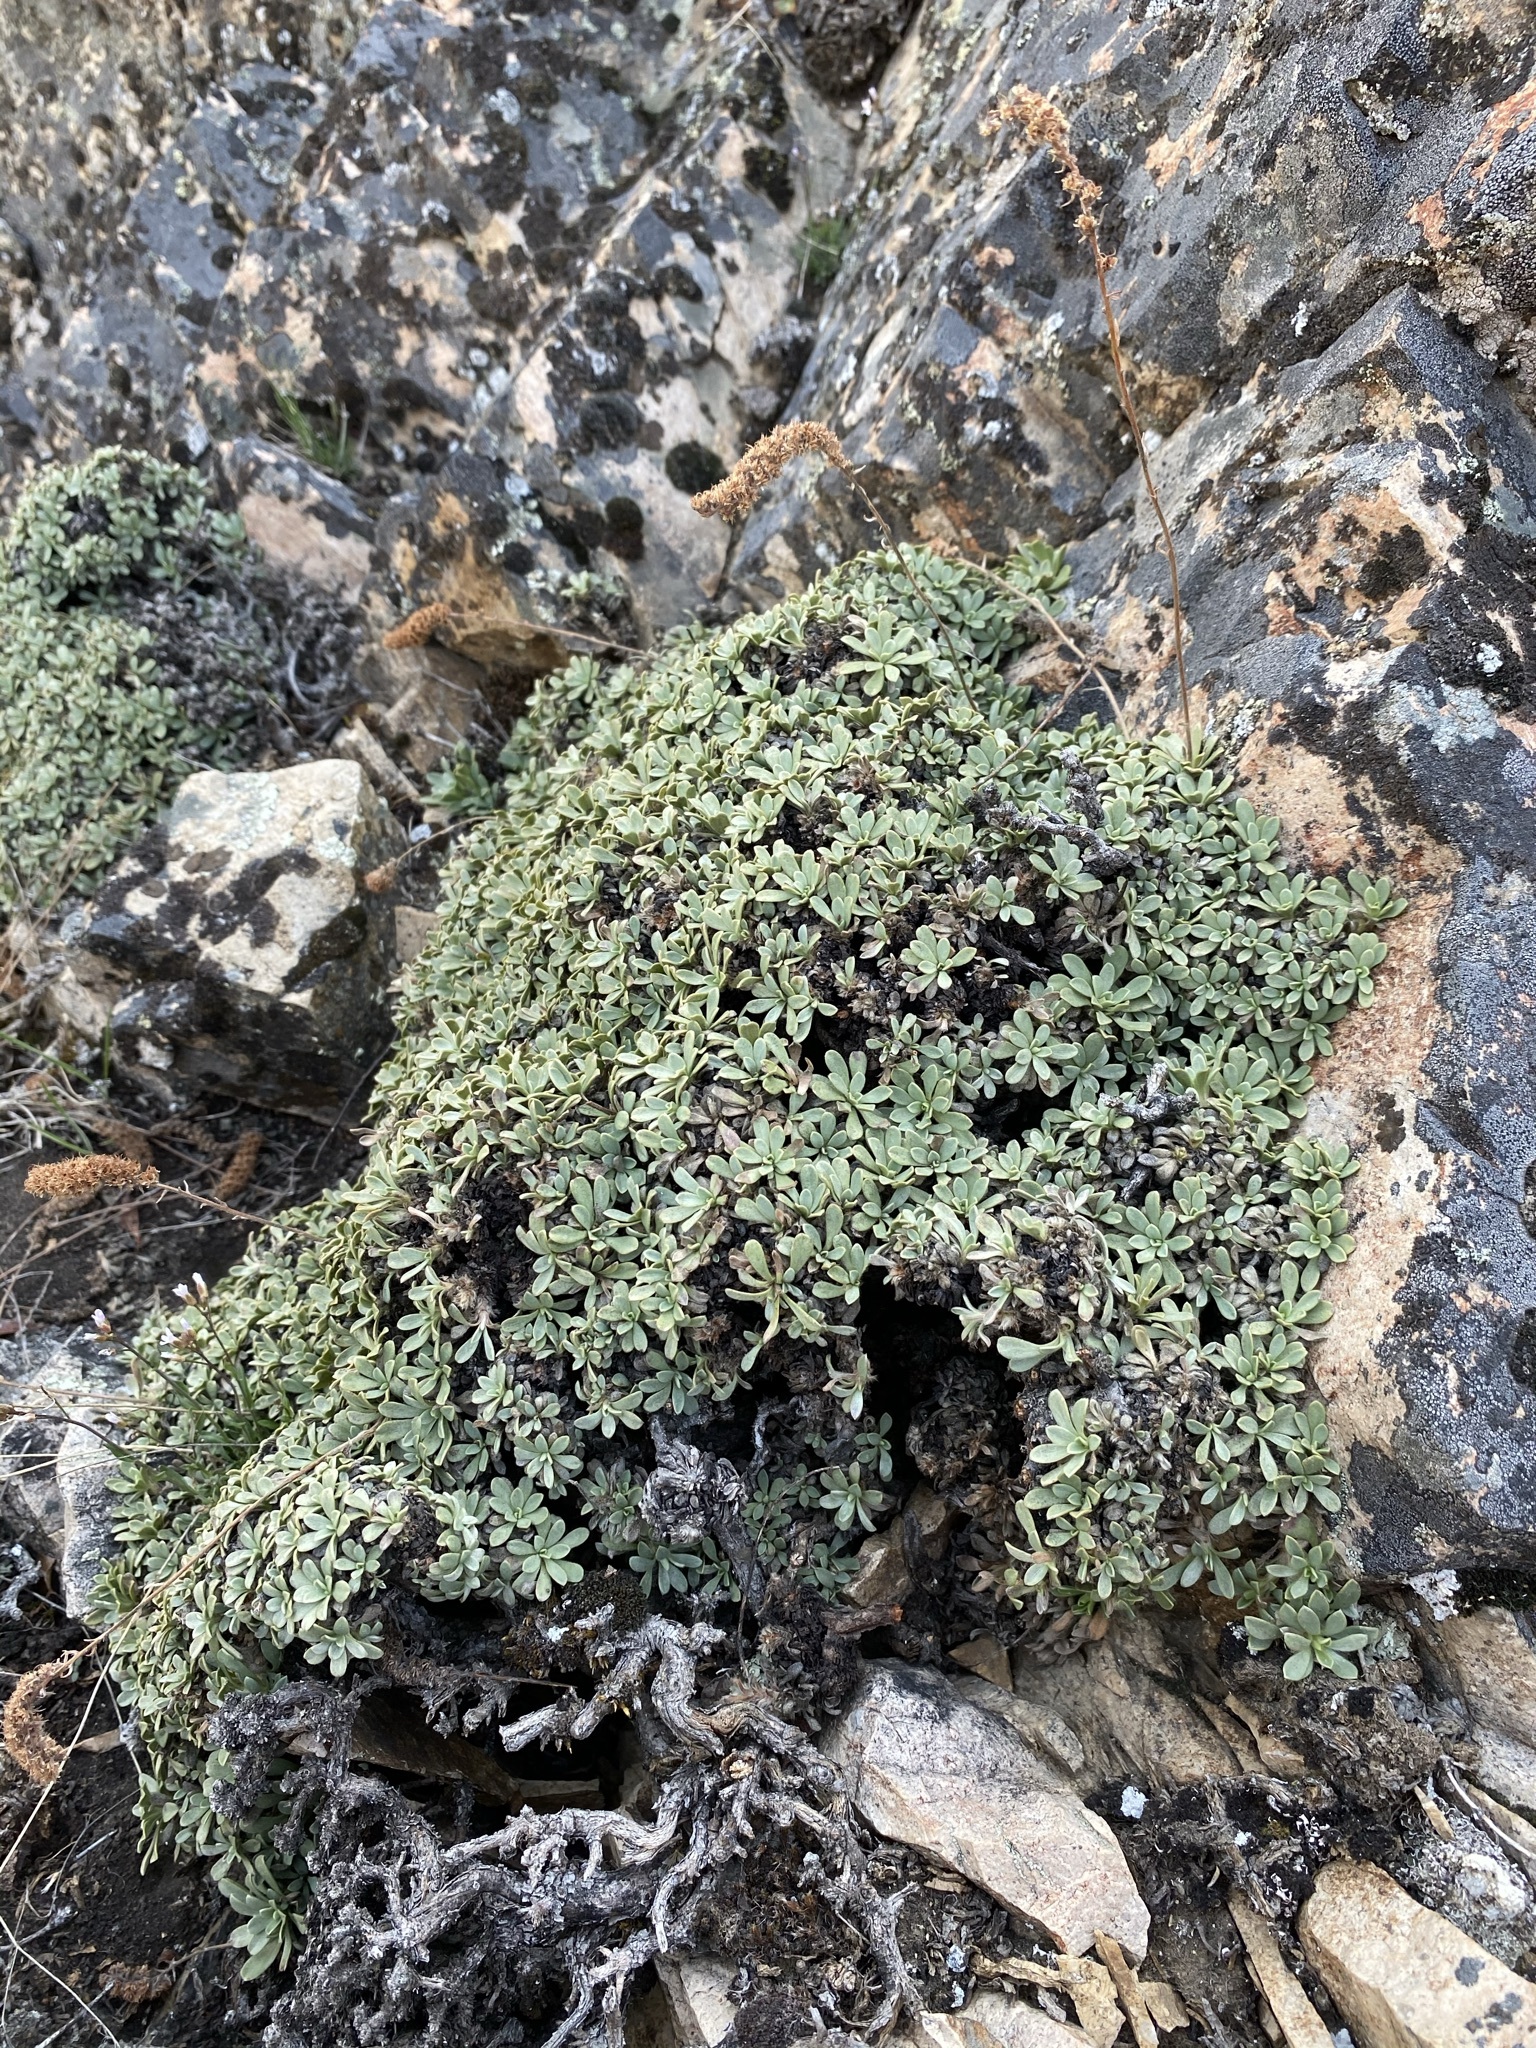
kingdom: Plantae
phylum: Tracheophyta
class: Magnoliopsida
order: Rosales
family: Rosaceae
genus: Petrophytum
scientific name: Petrophytum caespitosum
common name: Mat rockspirea
